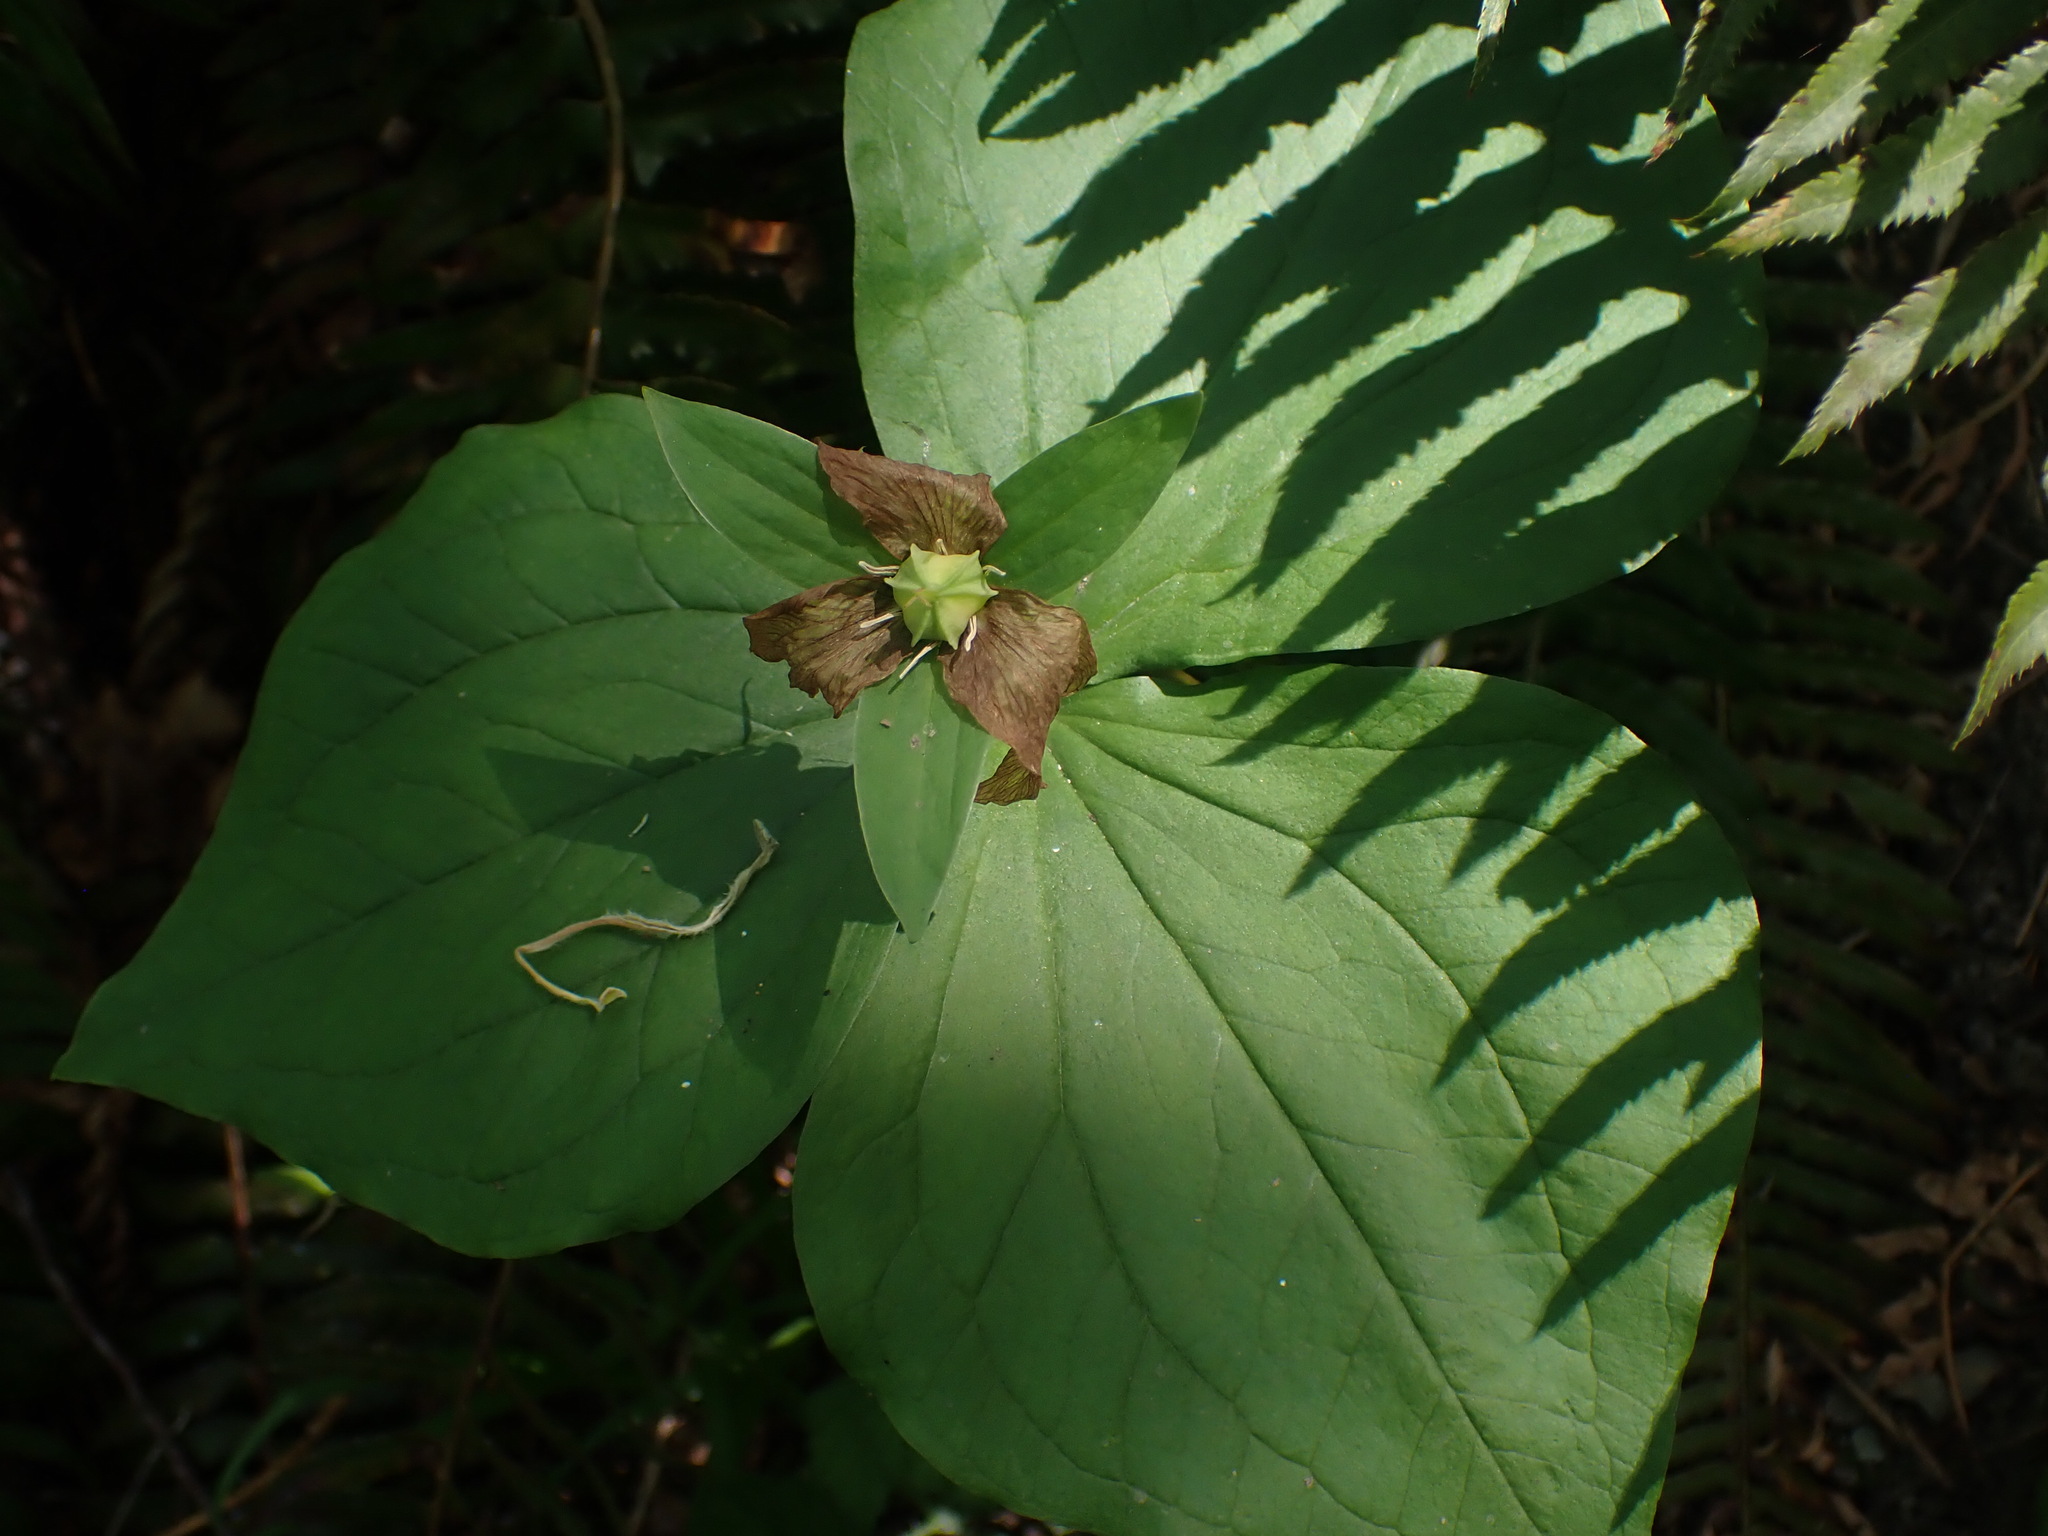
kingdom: Plantae
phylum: Tracheophyta
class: Liliopsida
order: Liliales
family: Melanthiaceae
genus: Trillium
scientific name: Trillium ovatum
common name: Pacific trillium
